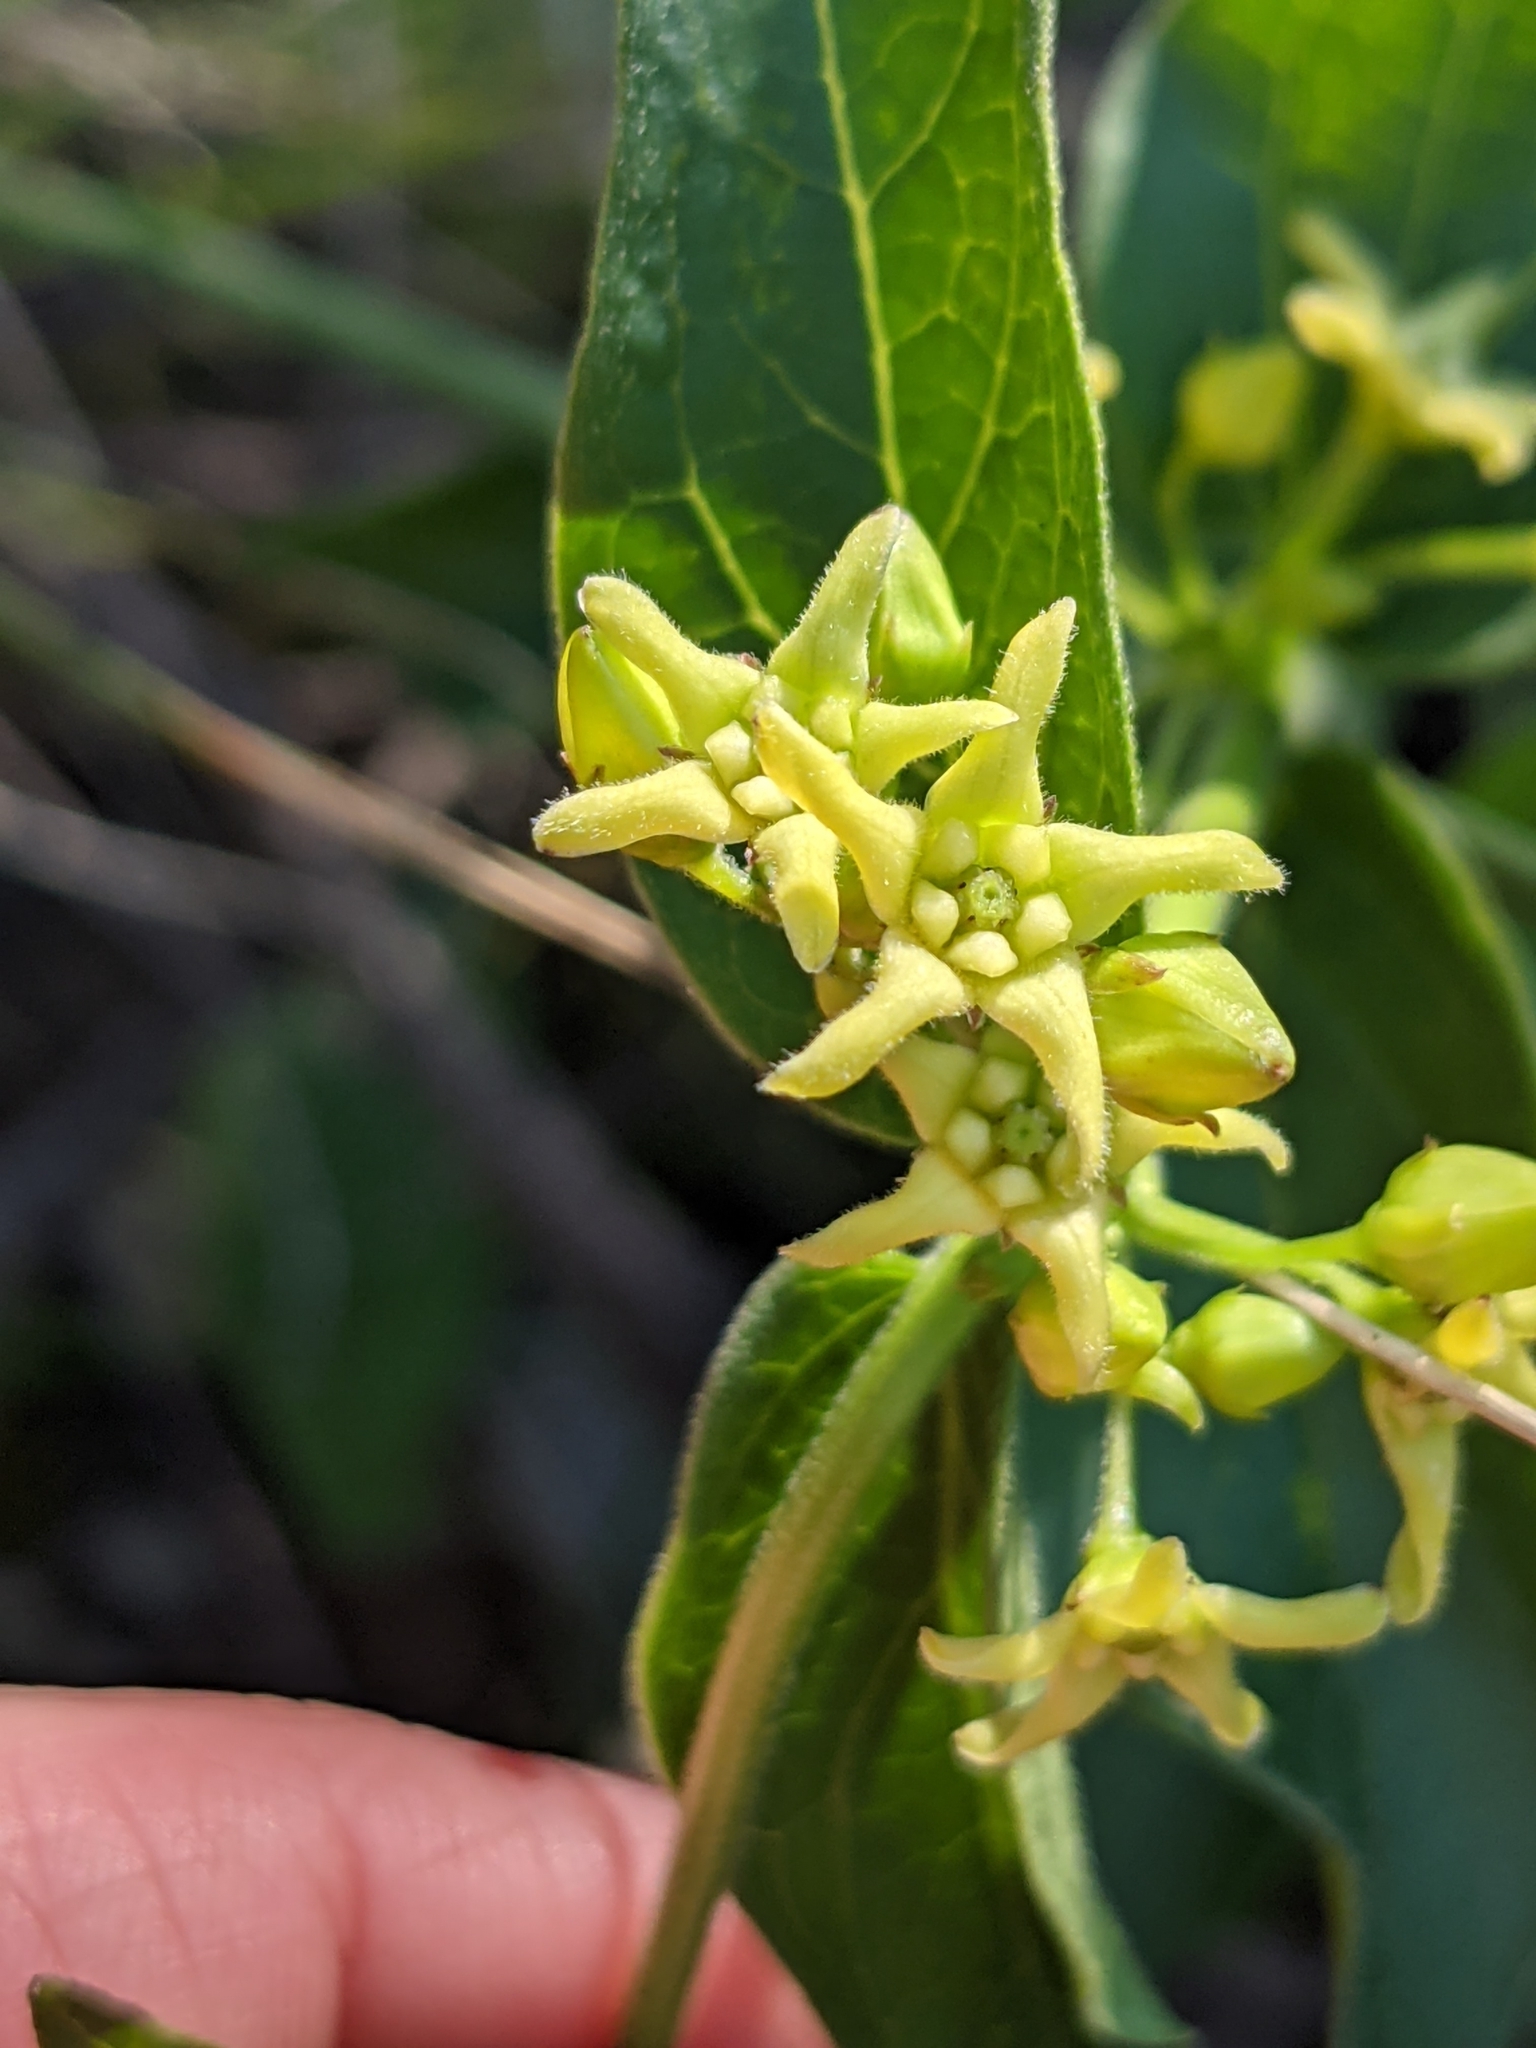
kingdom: Plantae
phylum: Tracheophyta
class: Magnoliopsida
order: Gentianales
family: Apocynaceae
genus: Vincetoxicum
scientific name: Vincetoxicum hirundinaria
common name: White swallowwort
